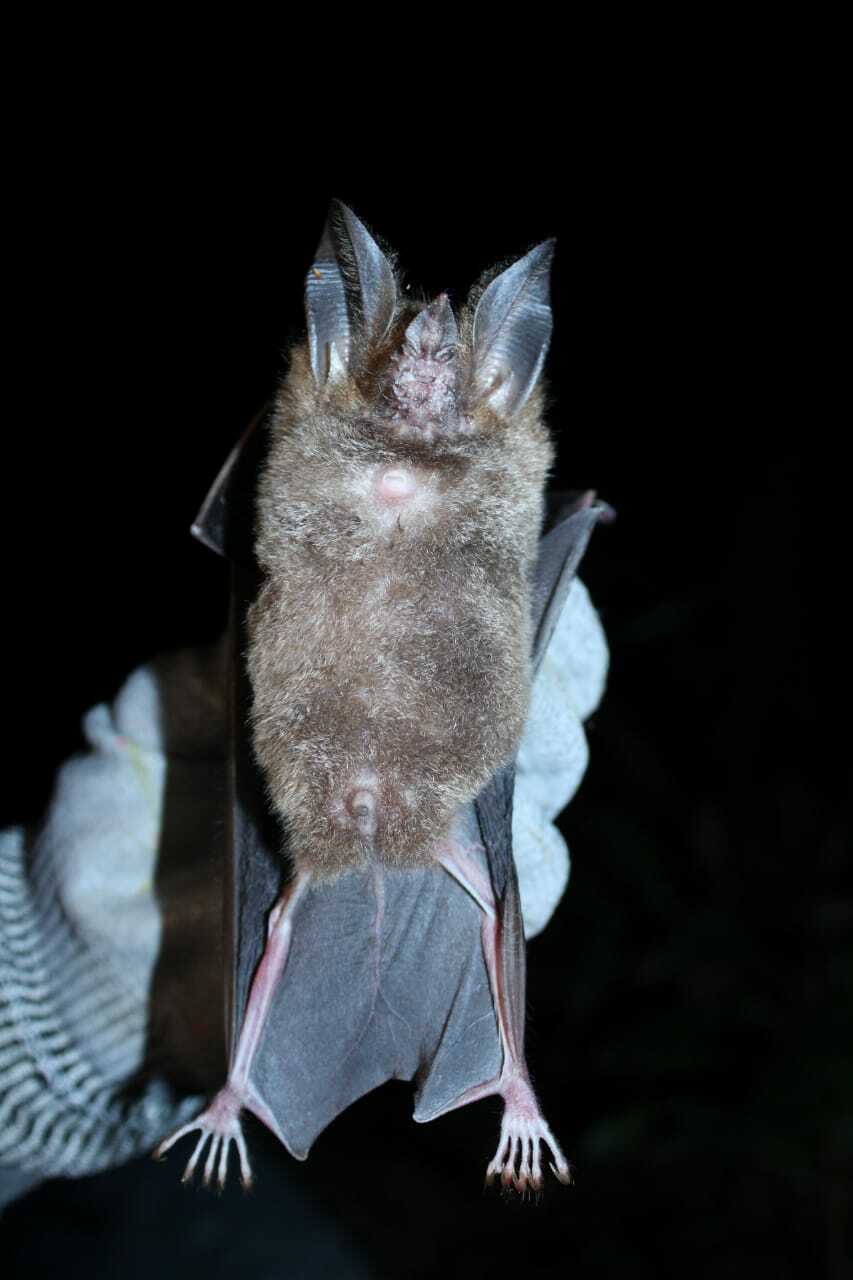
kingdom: Animalia
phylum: Chordata
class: Mammalia
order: Chiroptera
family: Phyllostomidae
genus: Trachops
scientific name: Trachops cirrhosus
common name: Fringe-lipped bat
